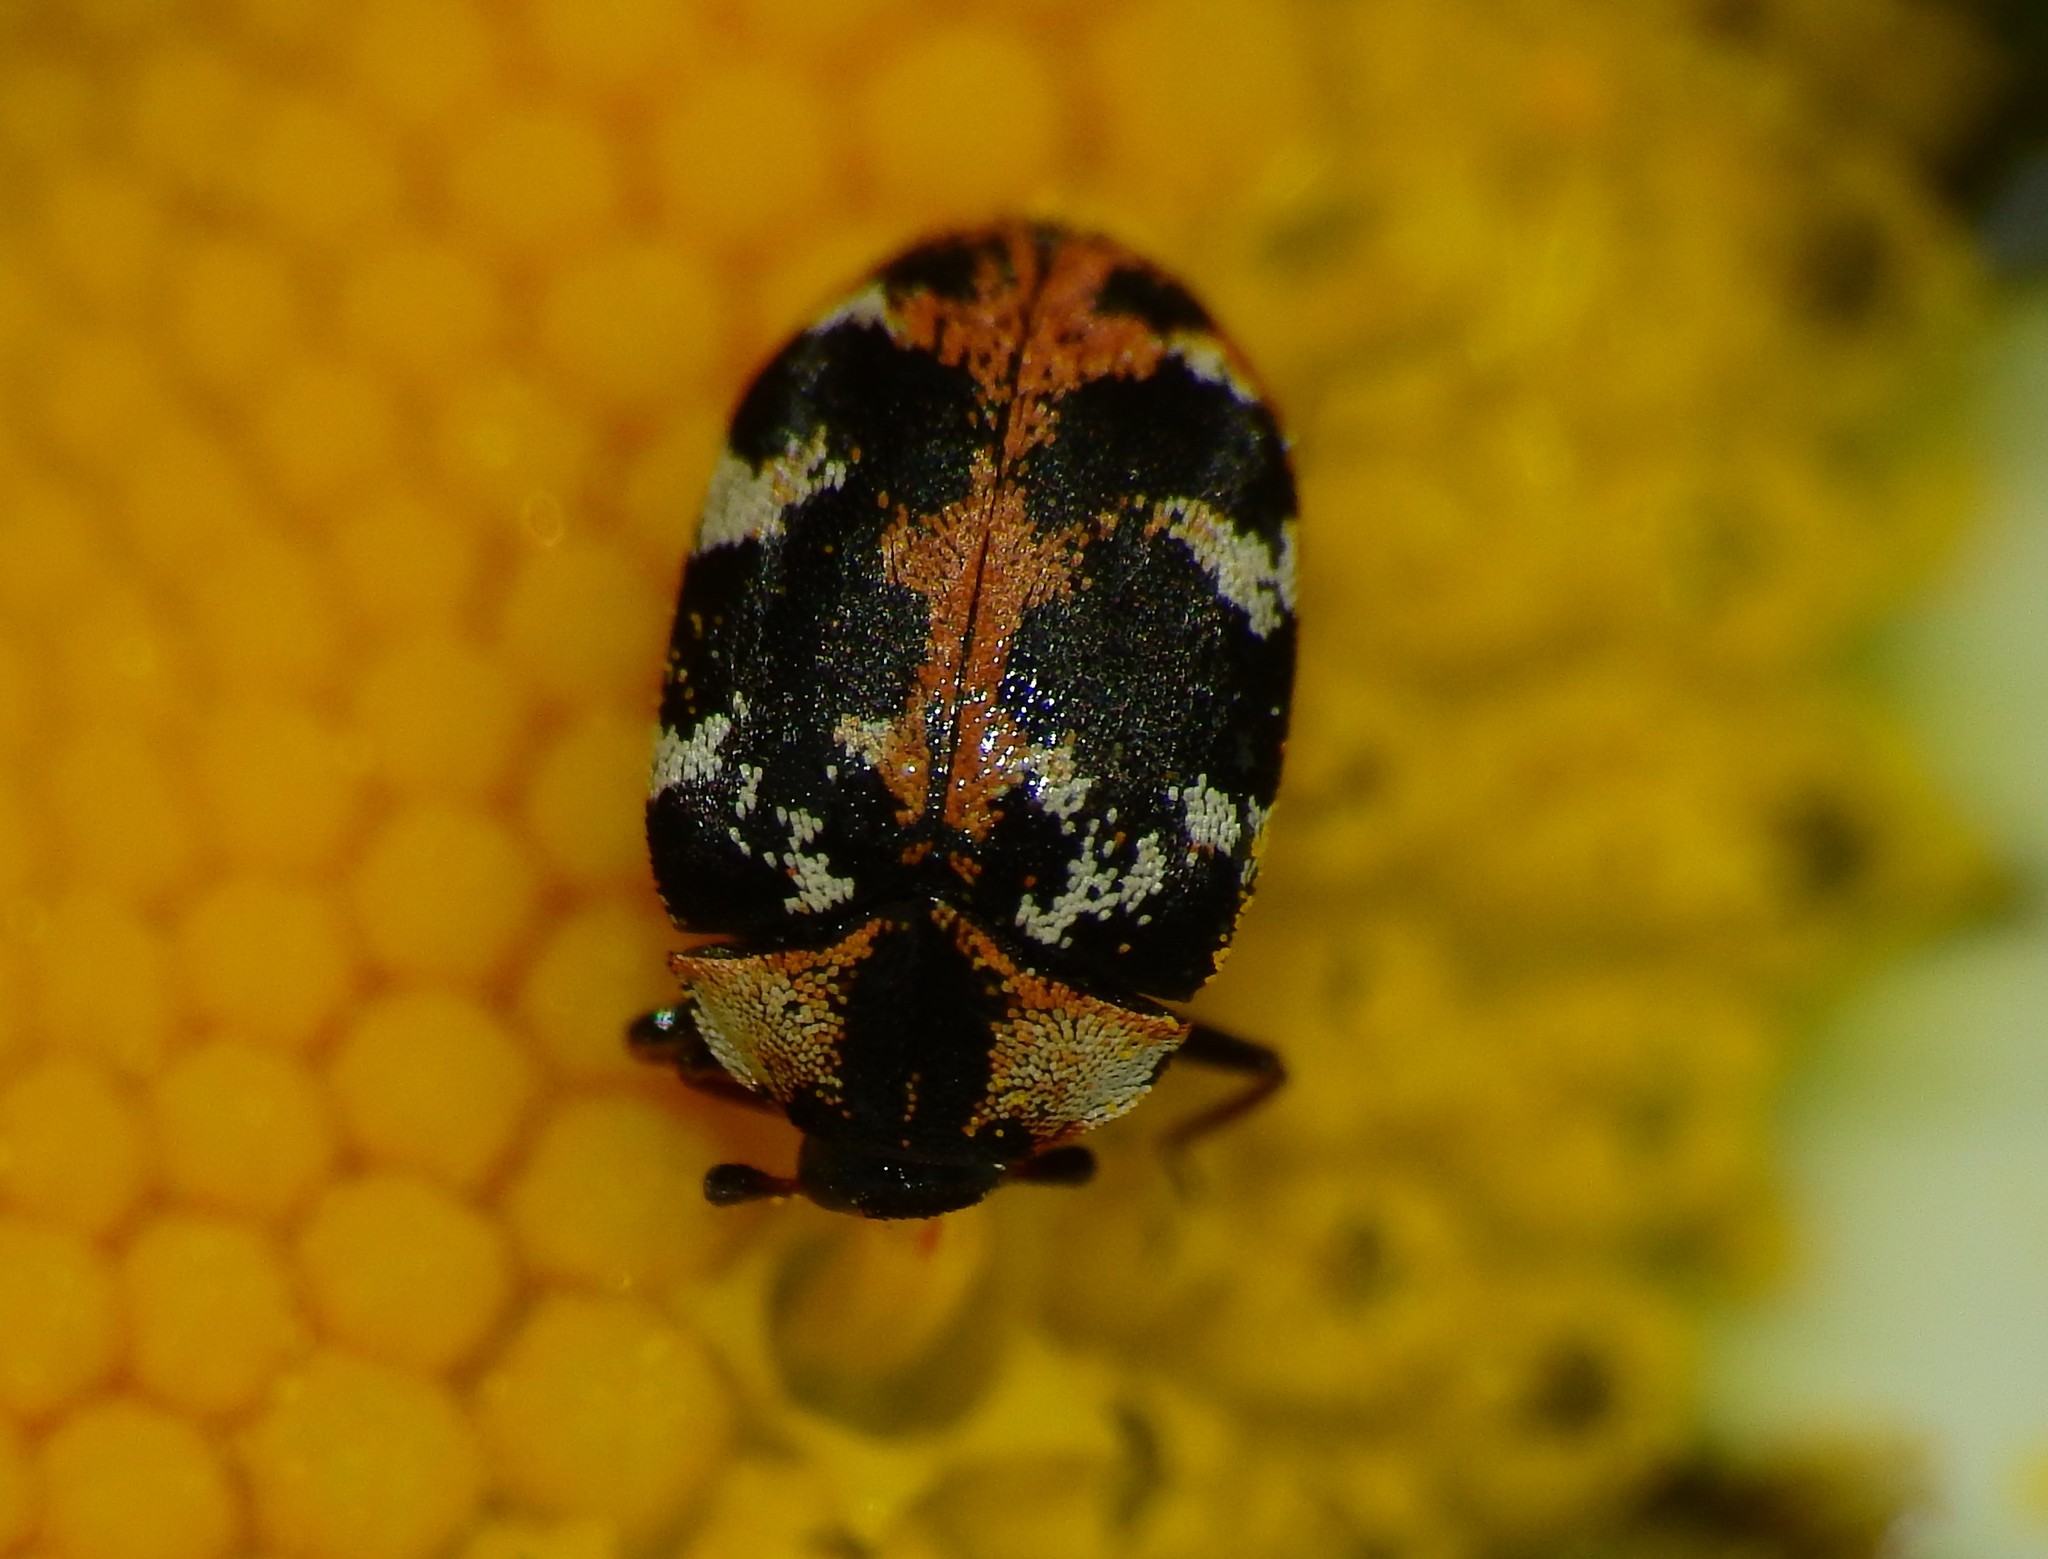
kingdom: Animalia
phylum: Arthropoda
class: Insecta
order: Coleoptera
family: Dermestidae
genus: Anthrenus
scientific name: Anthrenus scrophulariae
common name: Buffalo carpet beetle
